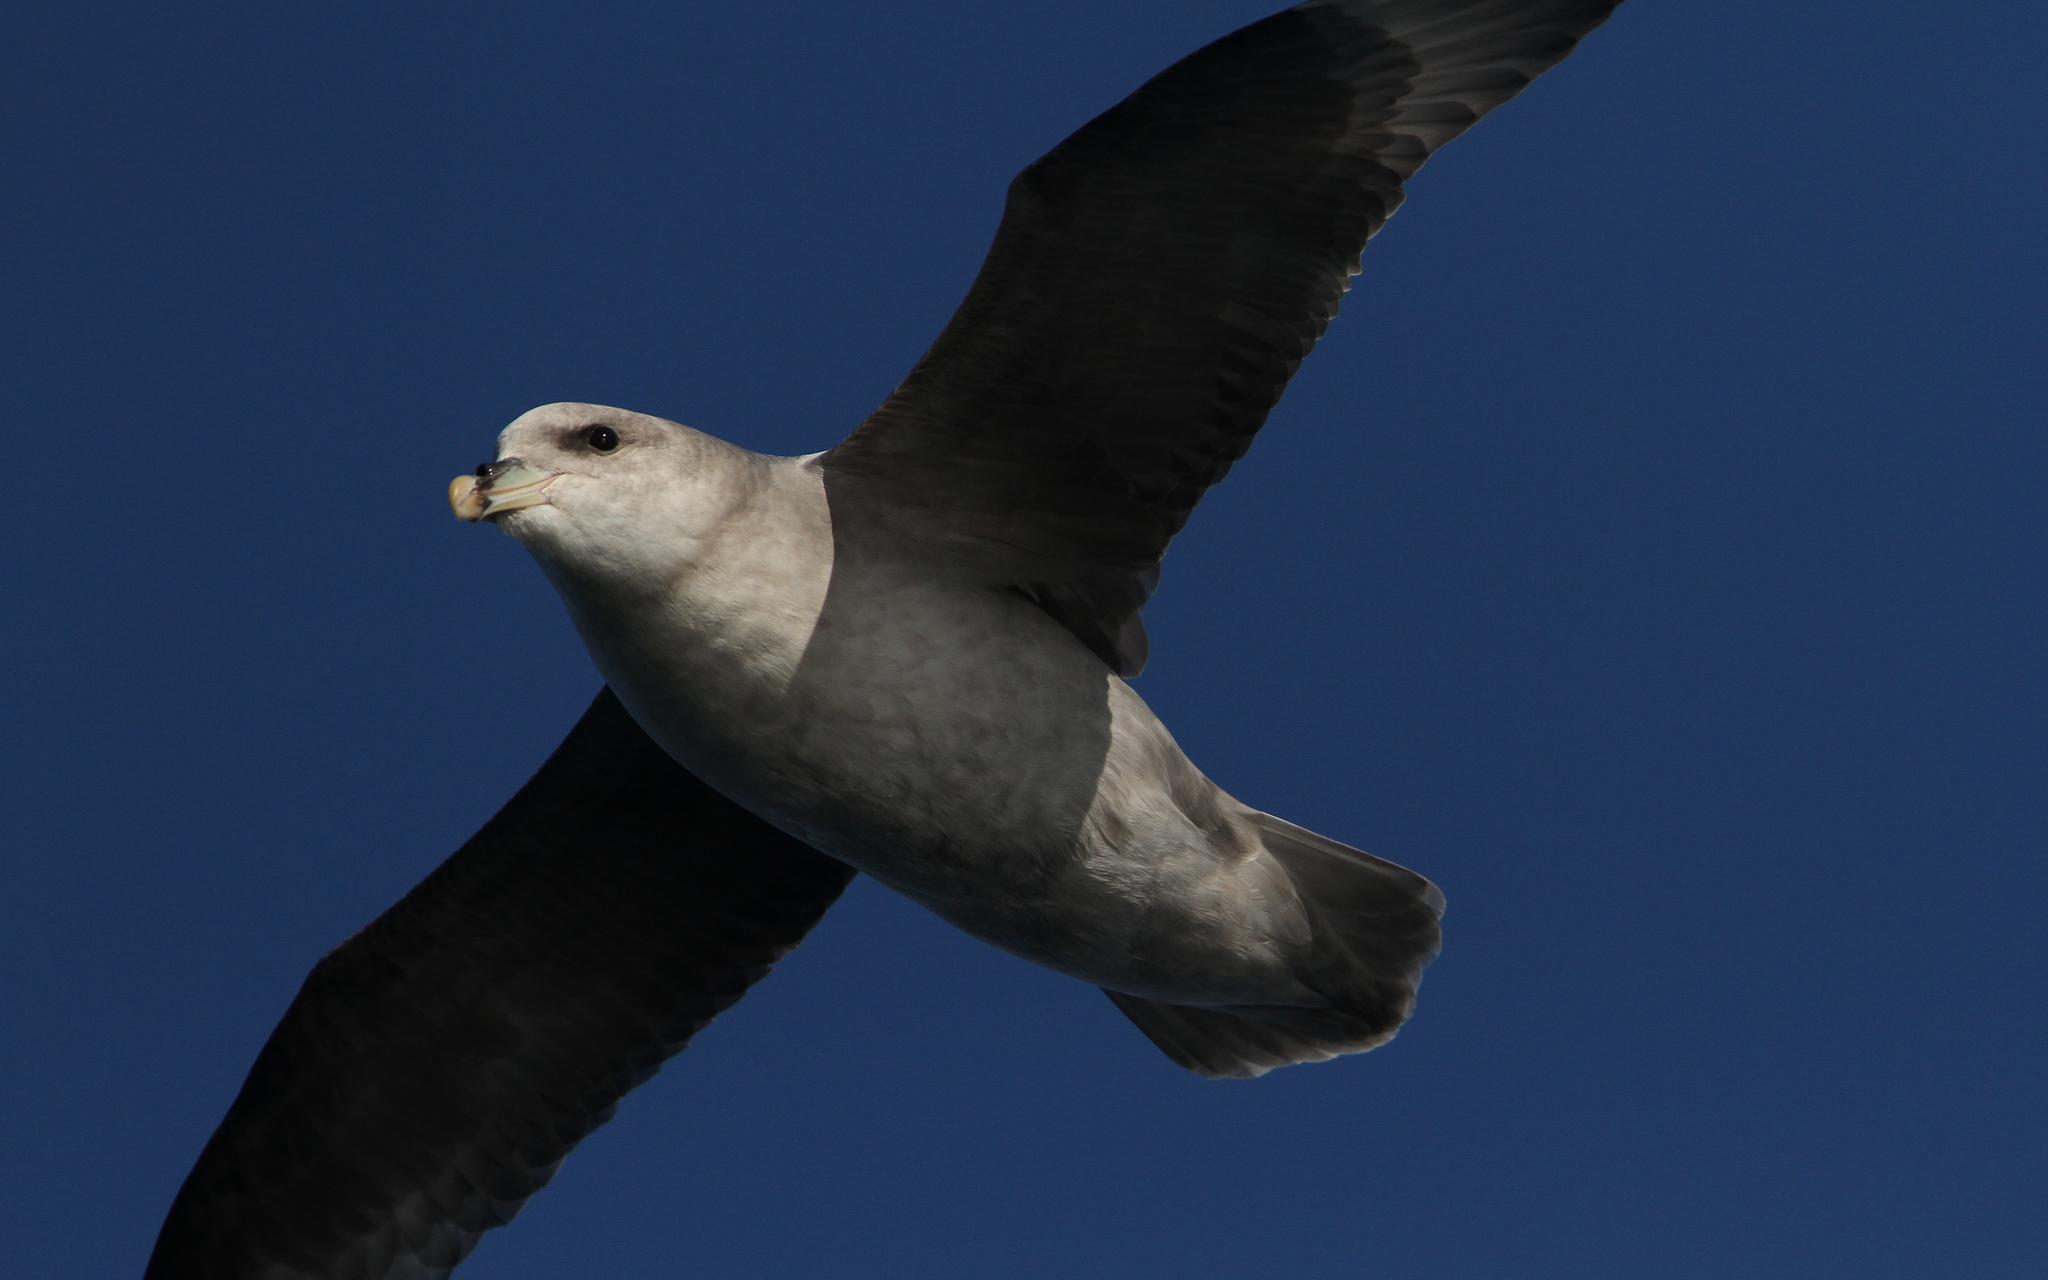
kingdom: Animalia
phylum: Chordata
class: Aves
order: Procellariiformes
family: Procellariidae
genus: Fulmarus
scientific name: Fulmarus glacialis
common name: Northern fulmar
